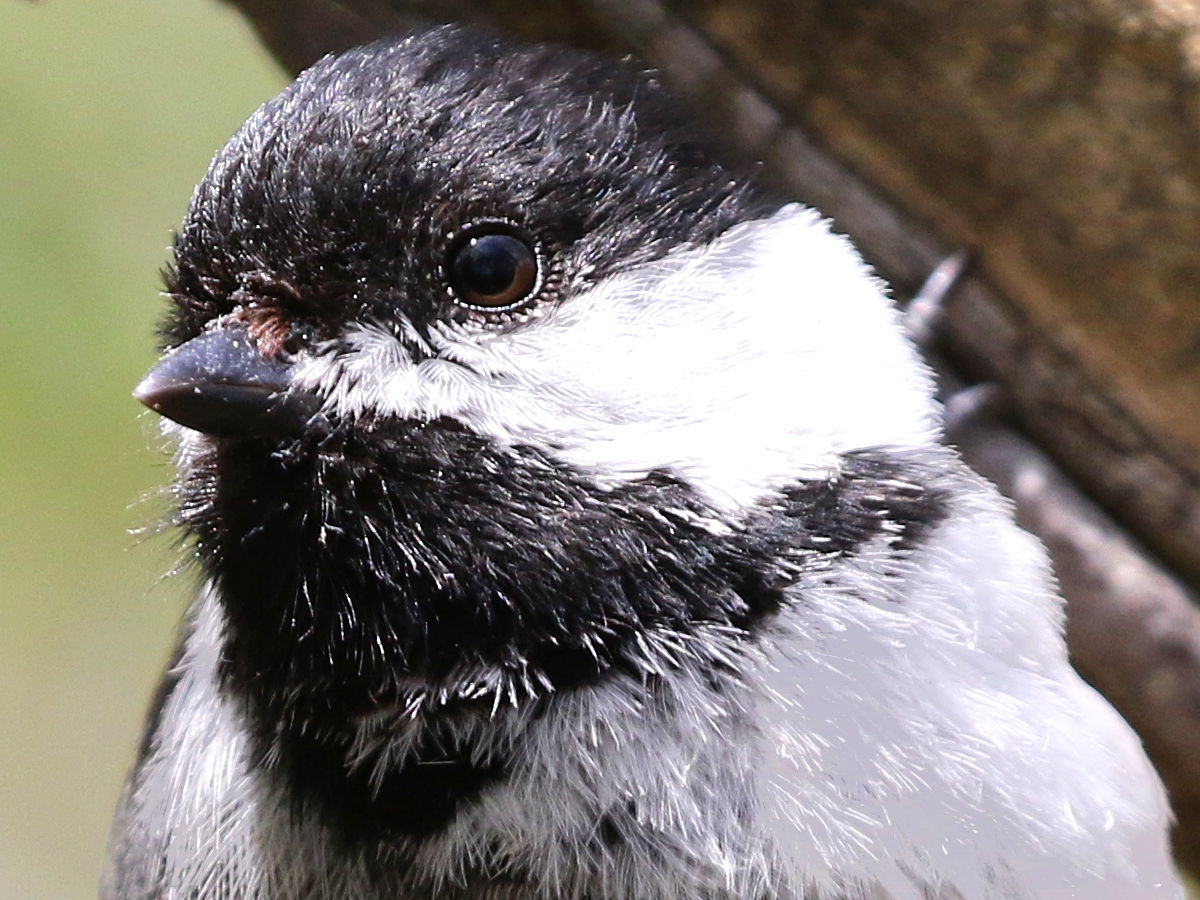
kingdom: Animalia
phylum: Chordata
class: Aves
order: Passeriformes
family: Paridae
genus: Poecile
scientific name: Poecile atricapillus
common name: Black-capped chickadee
